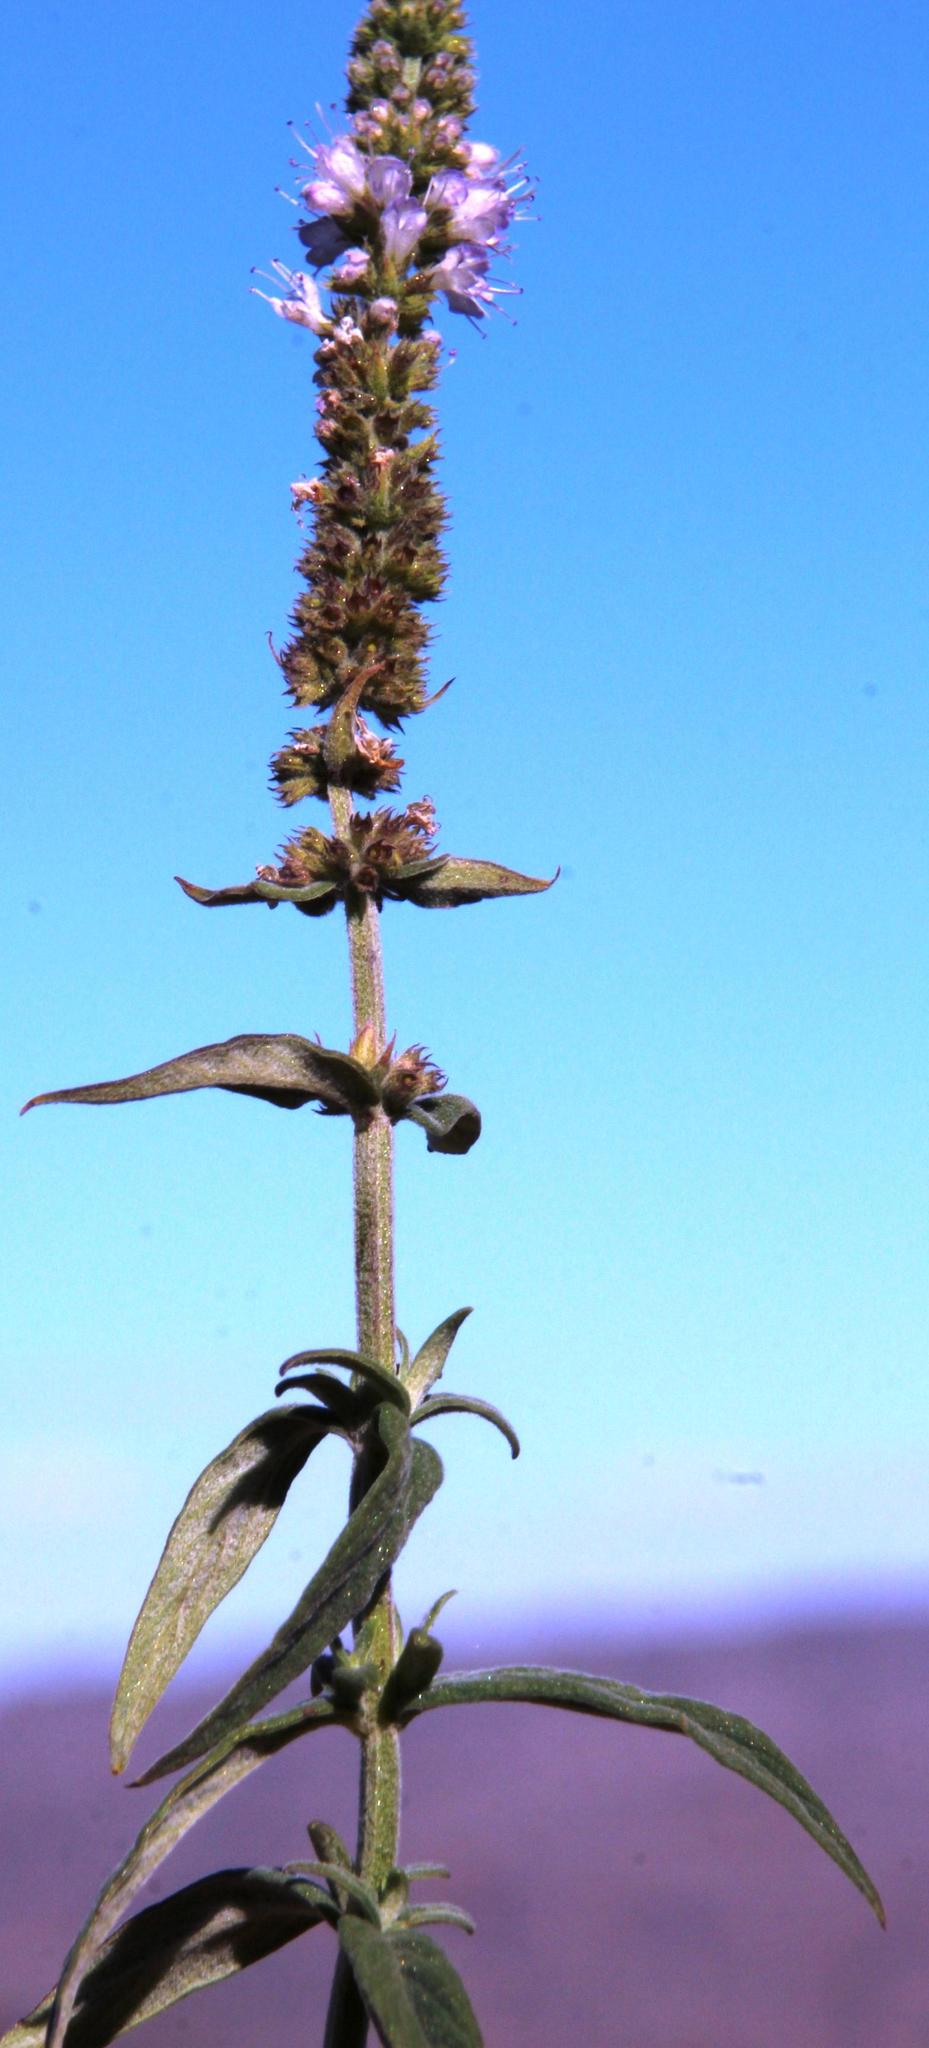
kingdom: Plantae
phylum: Tracheophyta
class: Magnoliopsida
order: Lamiales
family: Lamiaceae
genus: Mentha
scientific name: Mentha longifolia
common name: Horse mint
